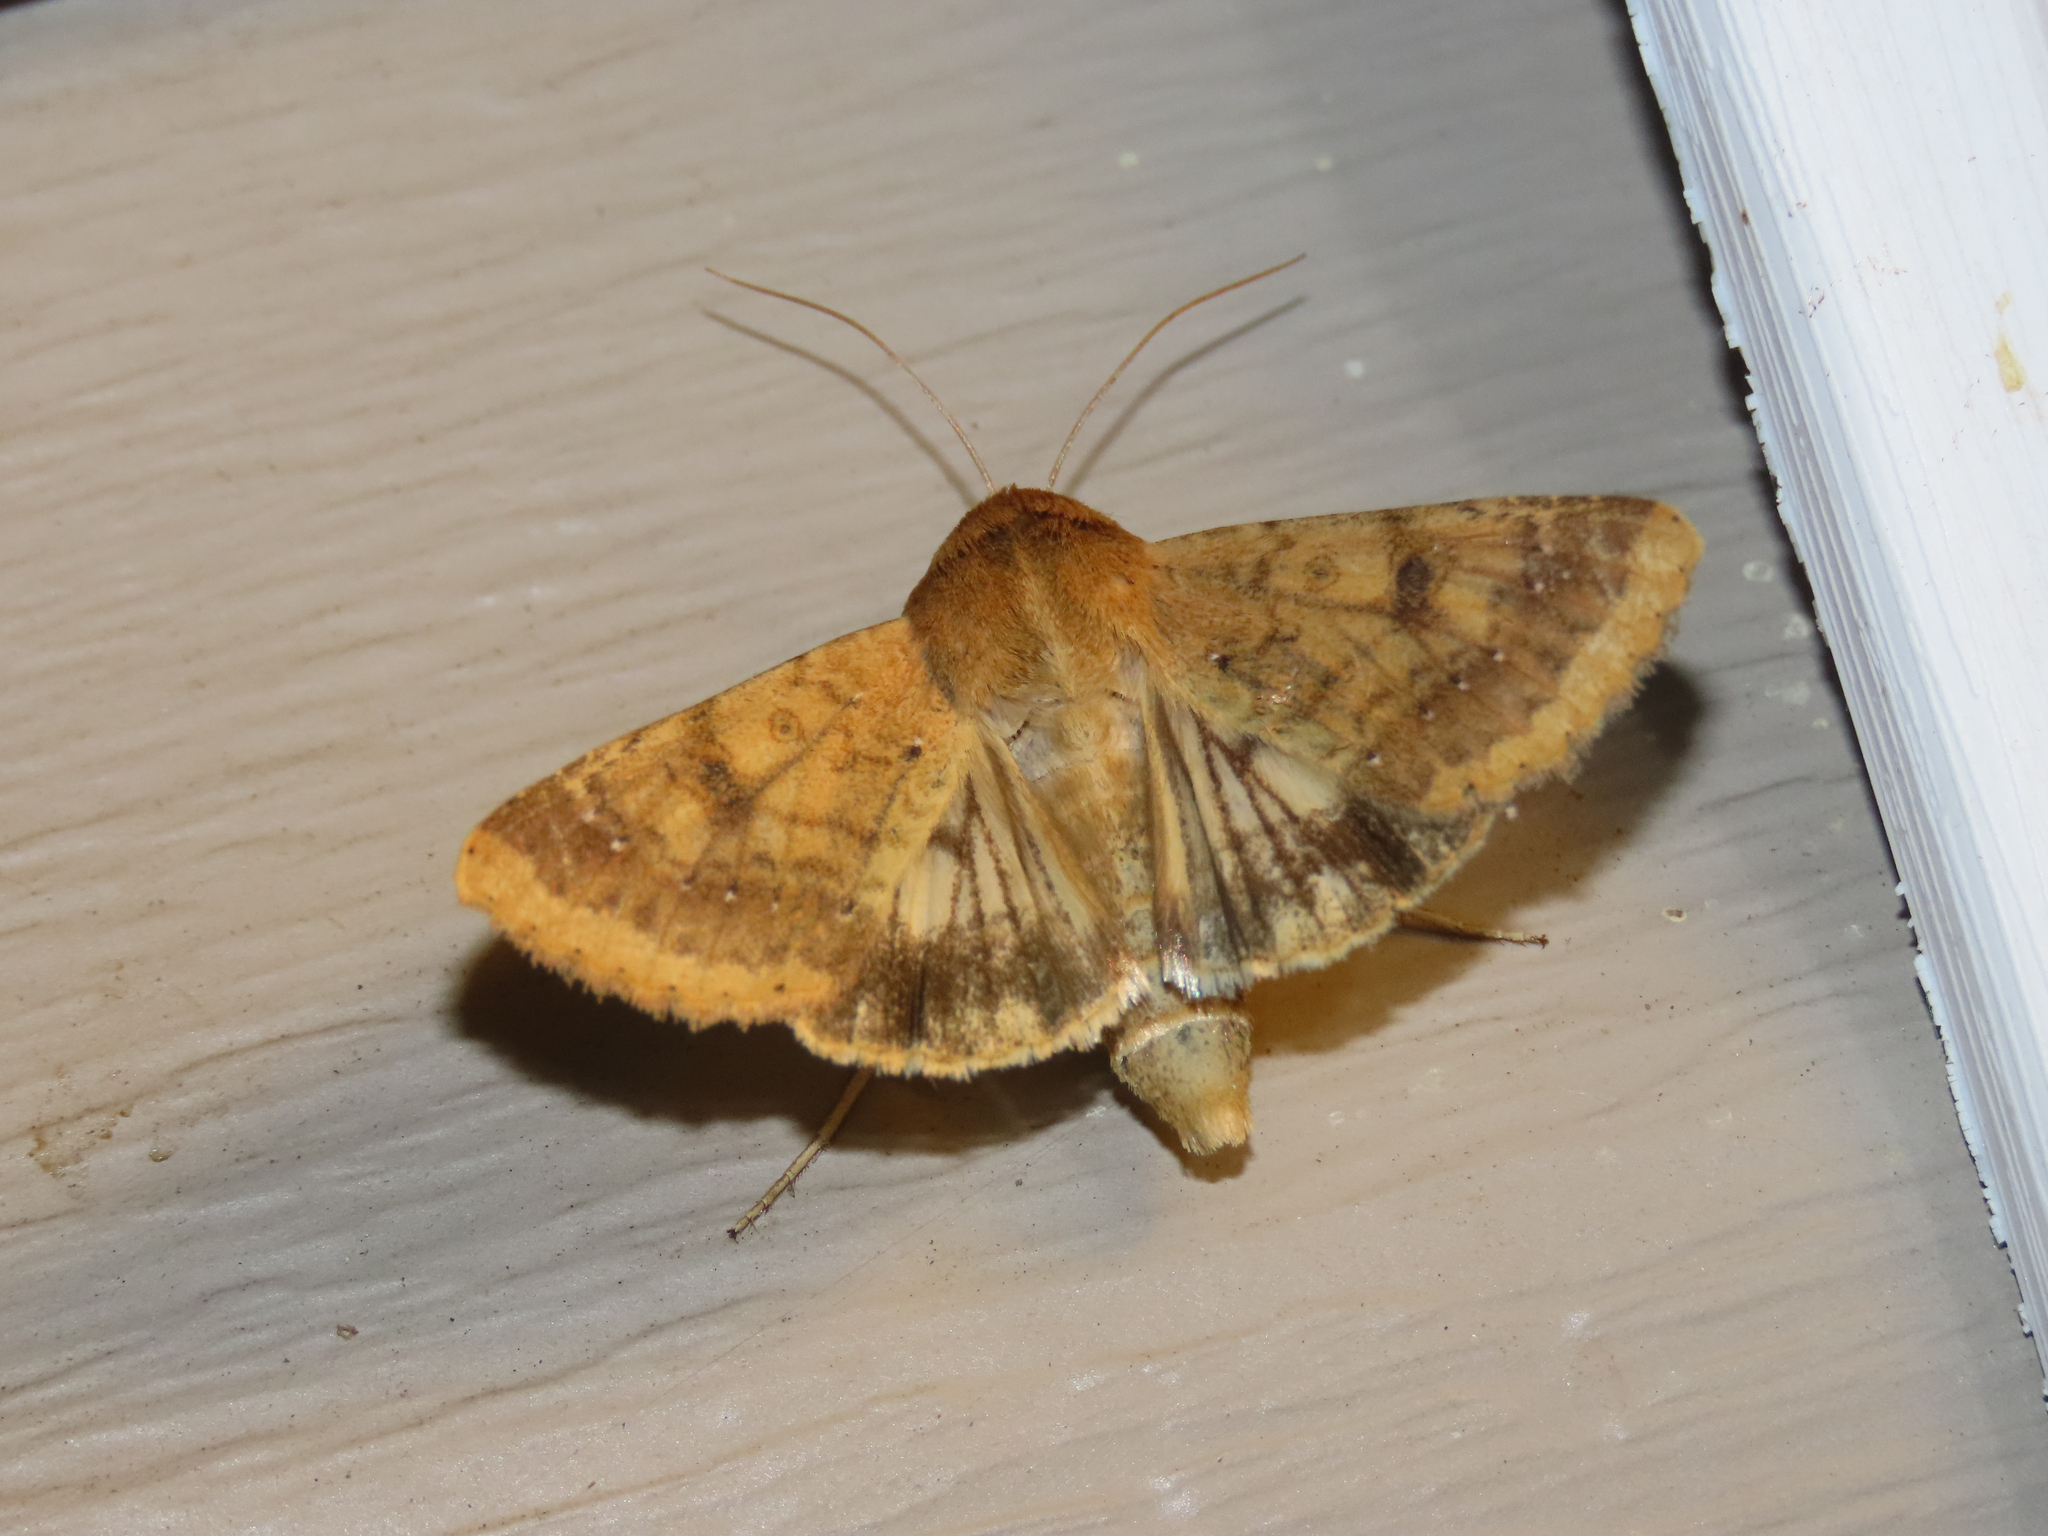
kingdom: Animalia
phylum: Arthropoda
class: Insecta
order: Lepidoptera
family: Noctuidae
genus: Helicoverpa
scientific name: Helicoverpa zea
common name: Bollworm
